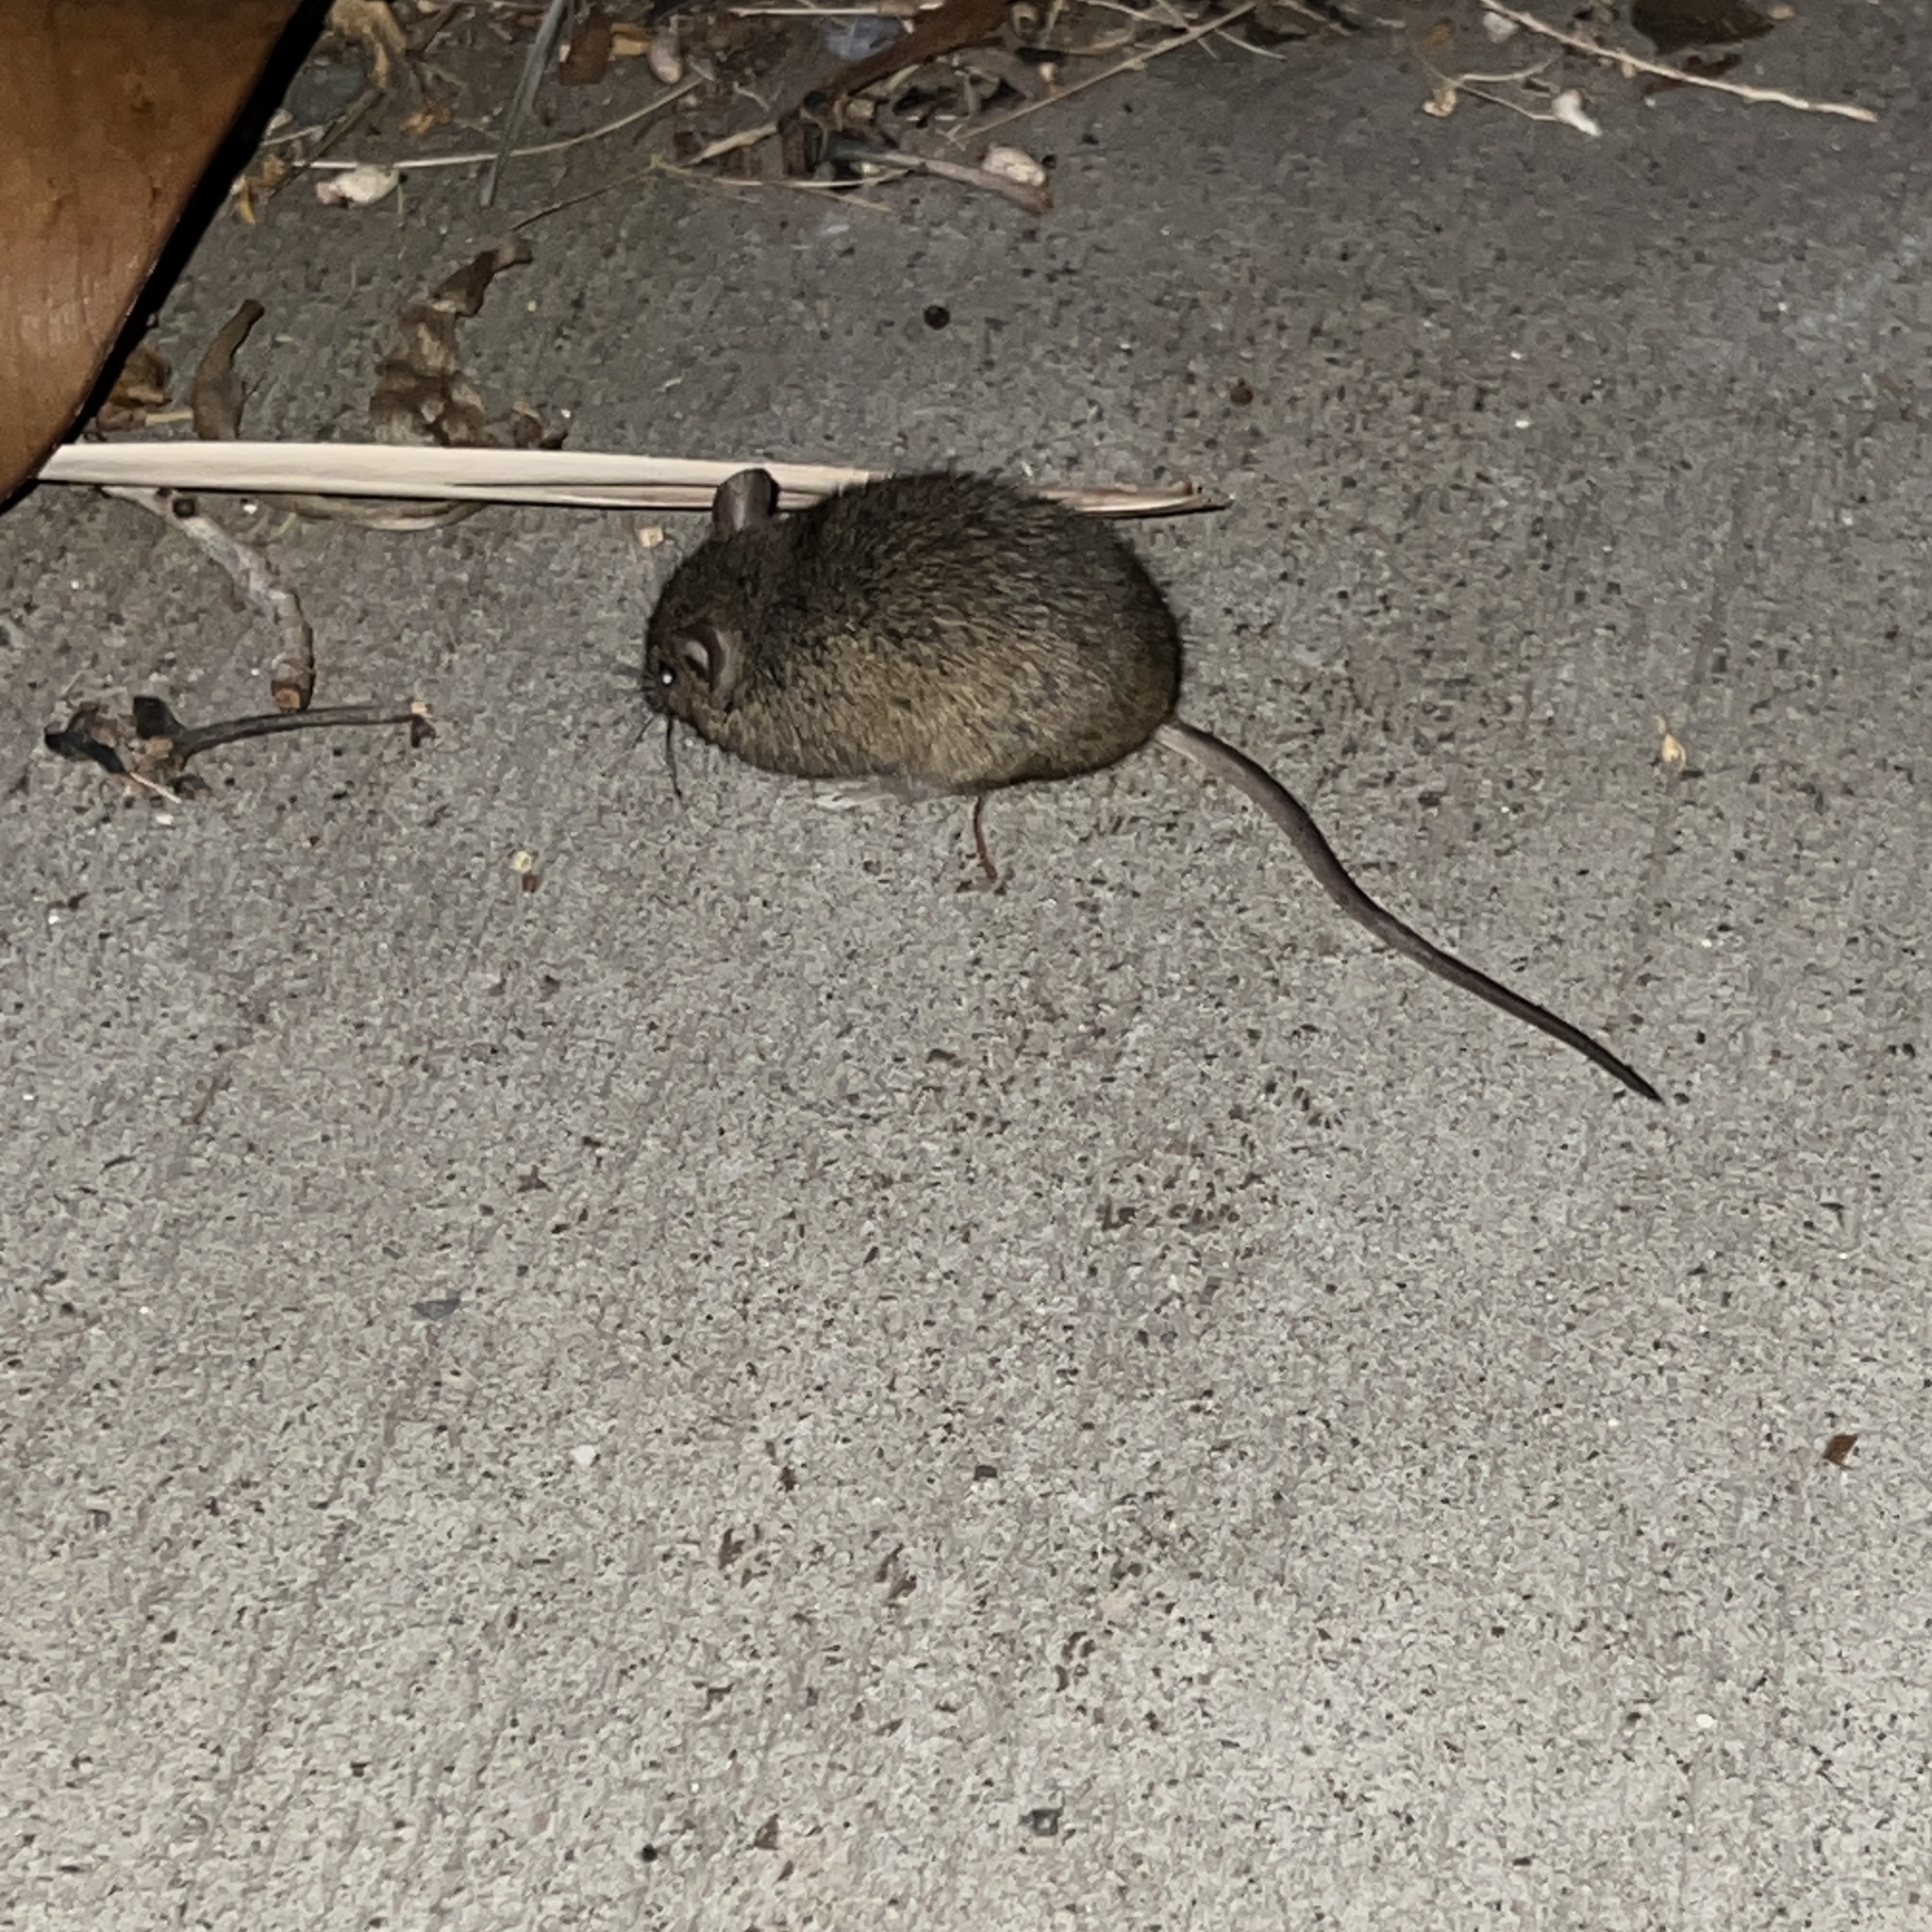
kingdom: Animalia
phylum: Chordata
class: Mammalia
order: Rodentia
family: Muridae
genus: Mus
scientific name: Mus musculus
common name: House mouse
